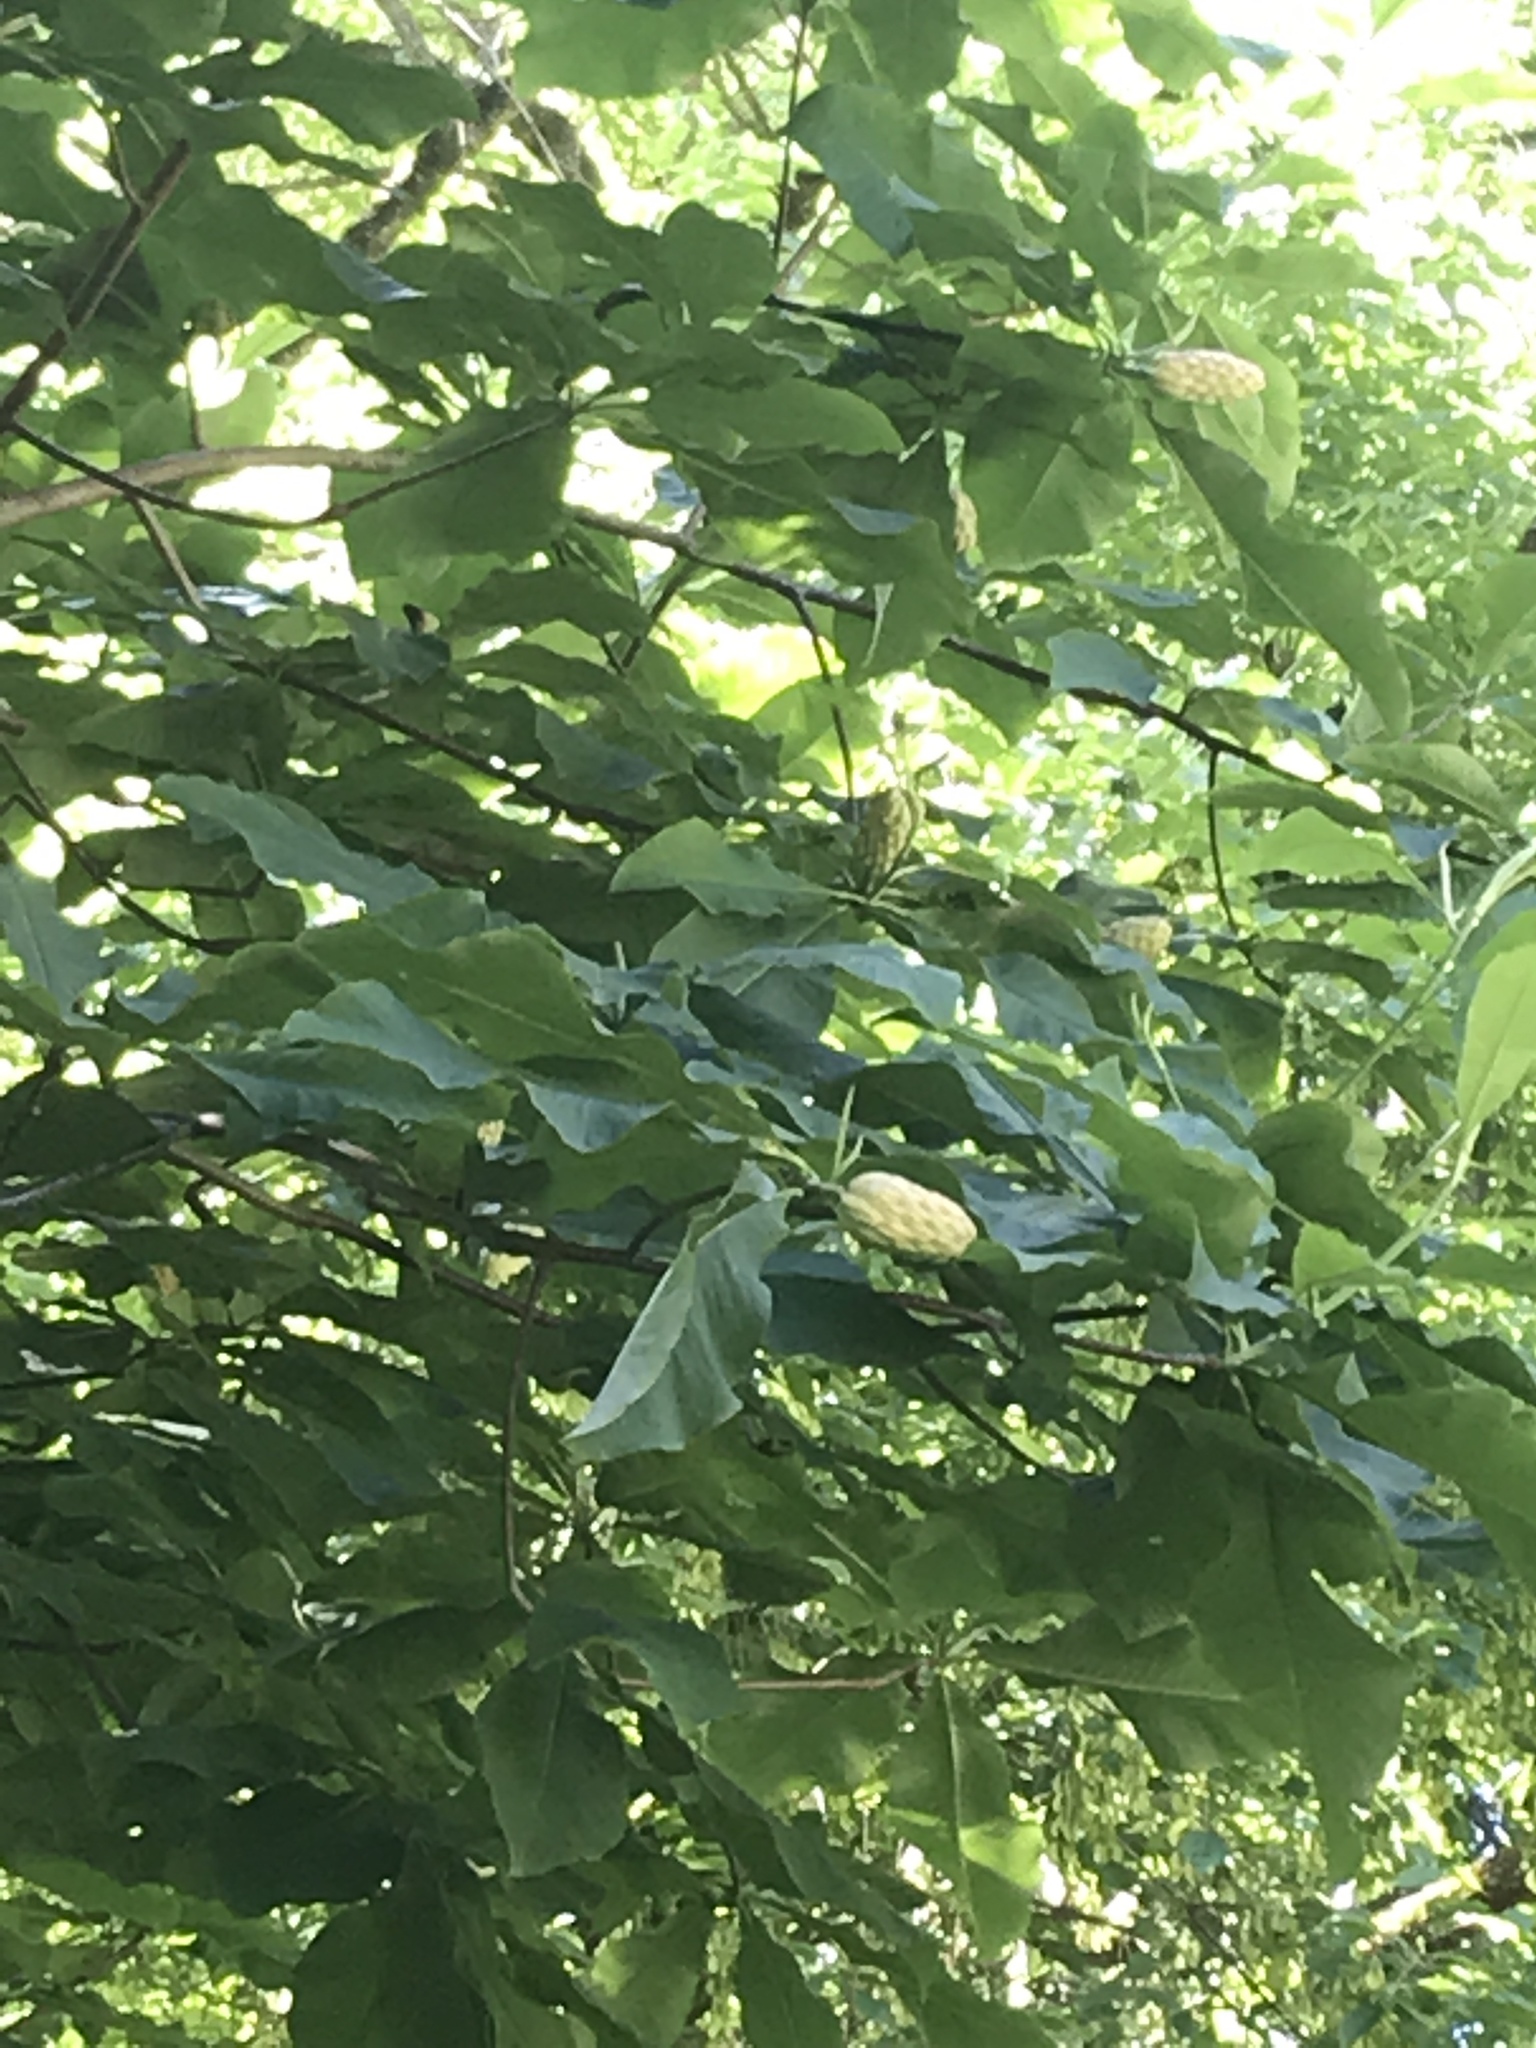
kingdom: Plantae
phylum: Tracheophyta
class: Magnoliopsida
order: Magnoliales
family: Magnoliaceae
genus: Magnolia
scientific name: Magnolia tripetala
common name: Umbrella magnolia
